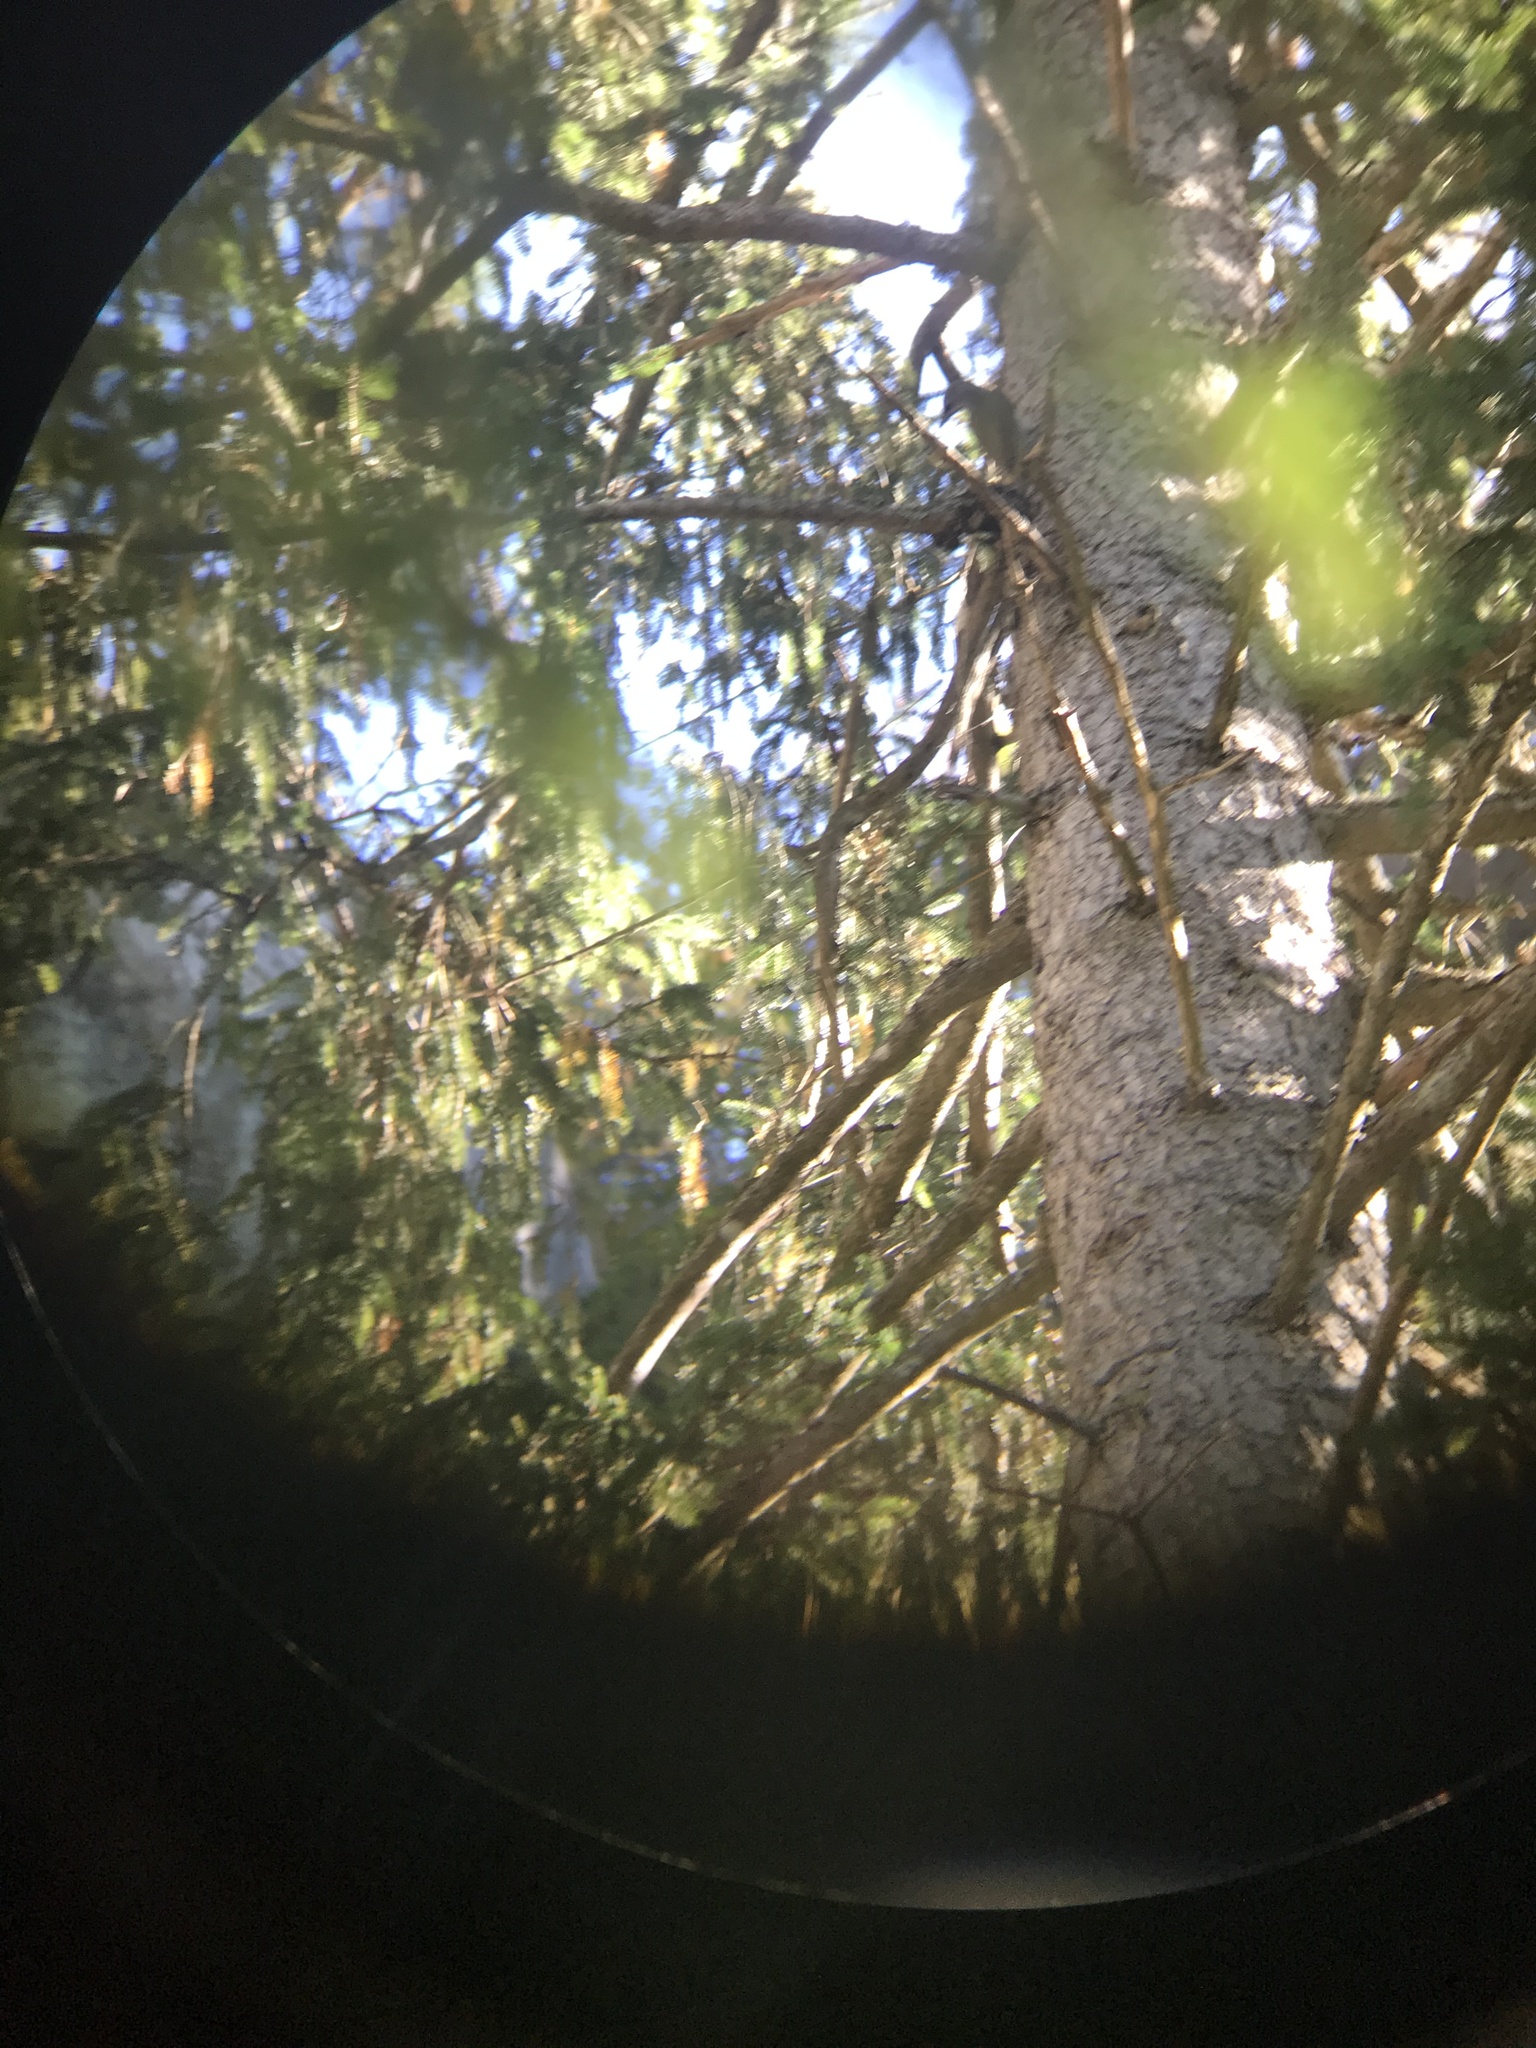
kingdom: Animalia
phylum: Chordata
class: Aves
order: Piciformes
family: Picidae
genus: Picus
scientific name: Picus canus
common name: Grey-headed woodpecker
